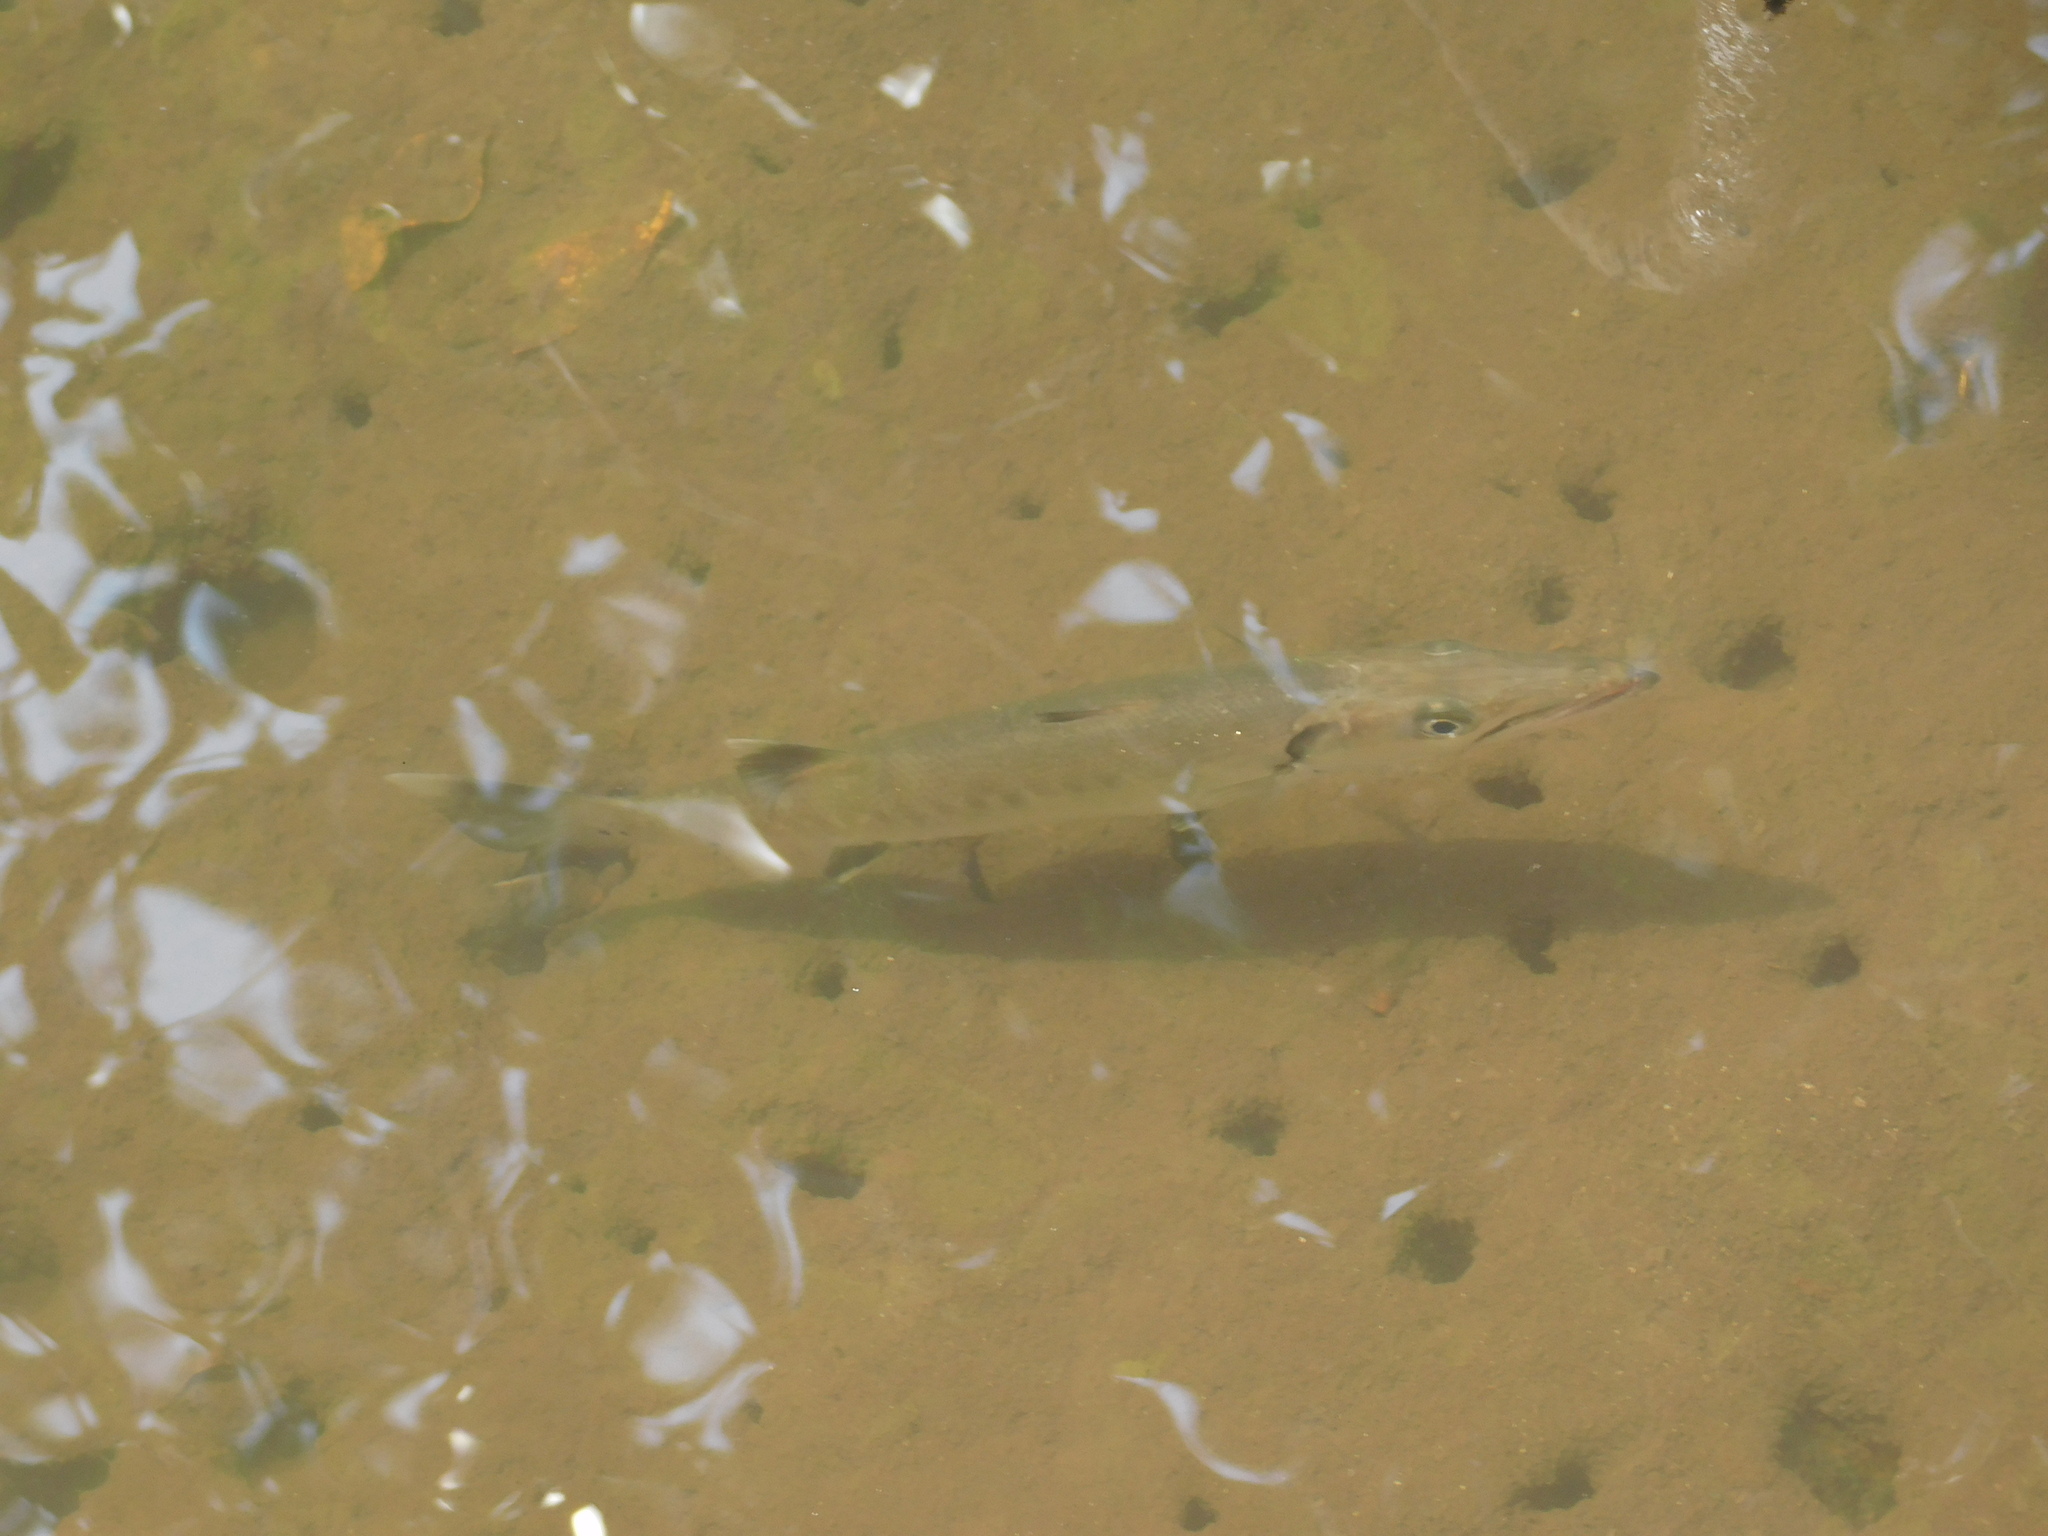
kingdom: Animalia
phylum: Chordata
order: Perciformes
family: Sphyraenidae
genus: Sphyraena
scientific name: Sphyraena barracuda
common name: Great barracuda
